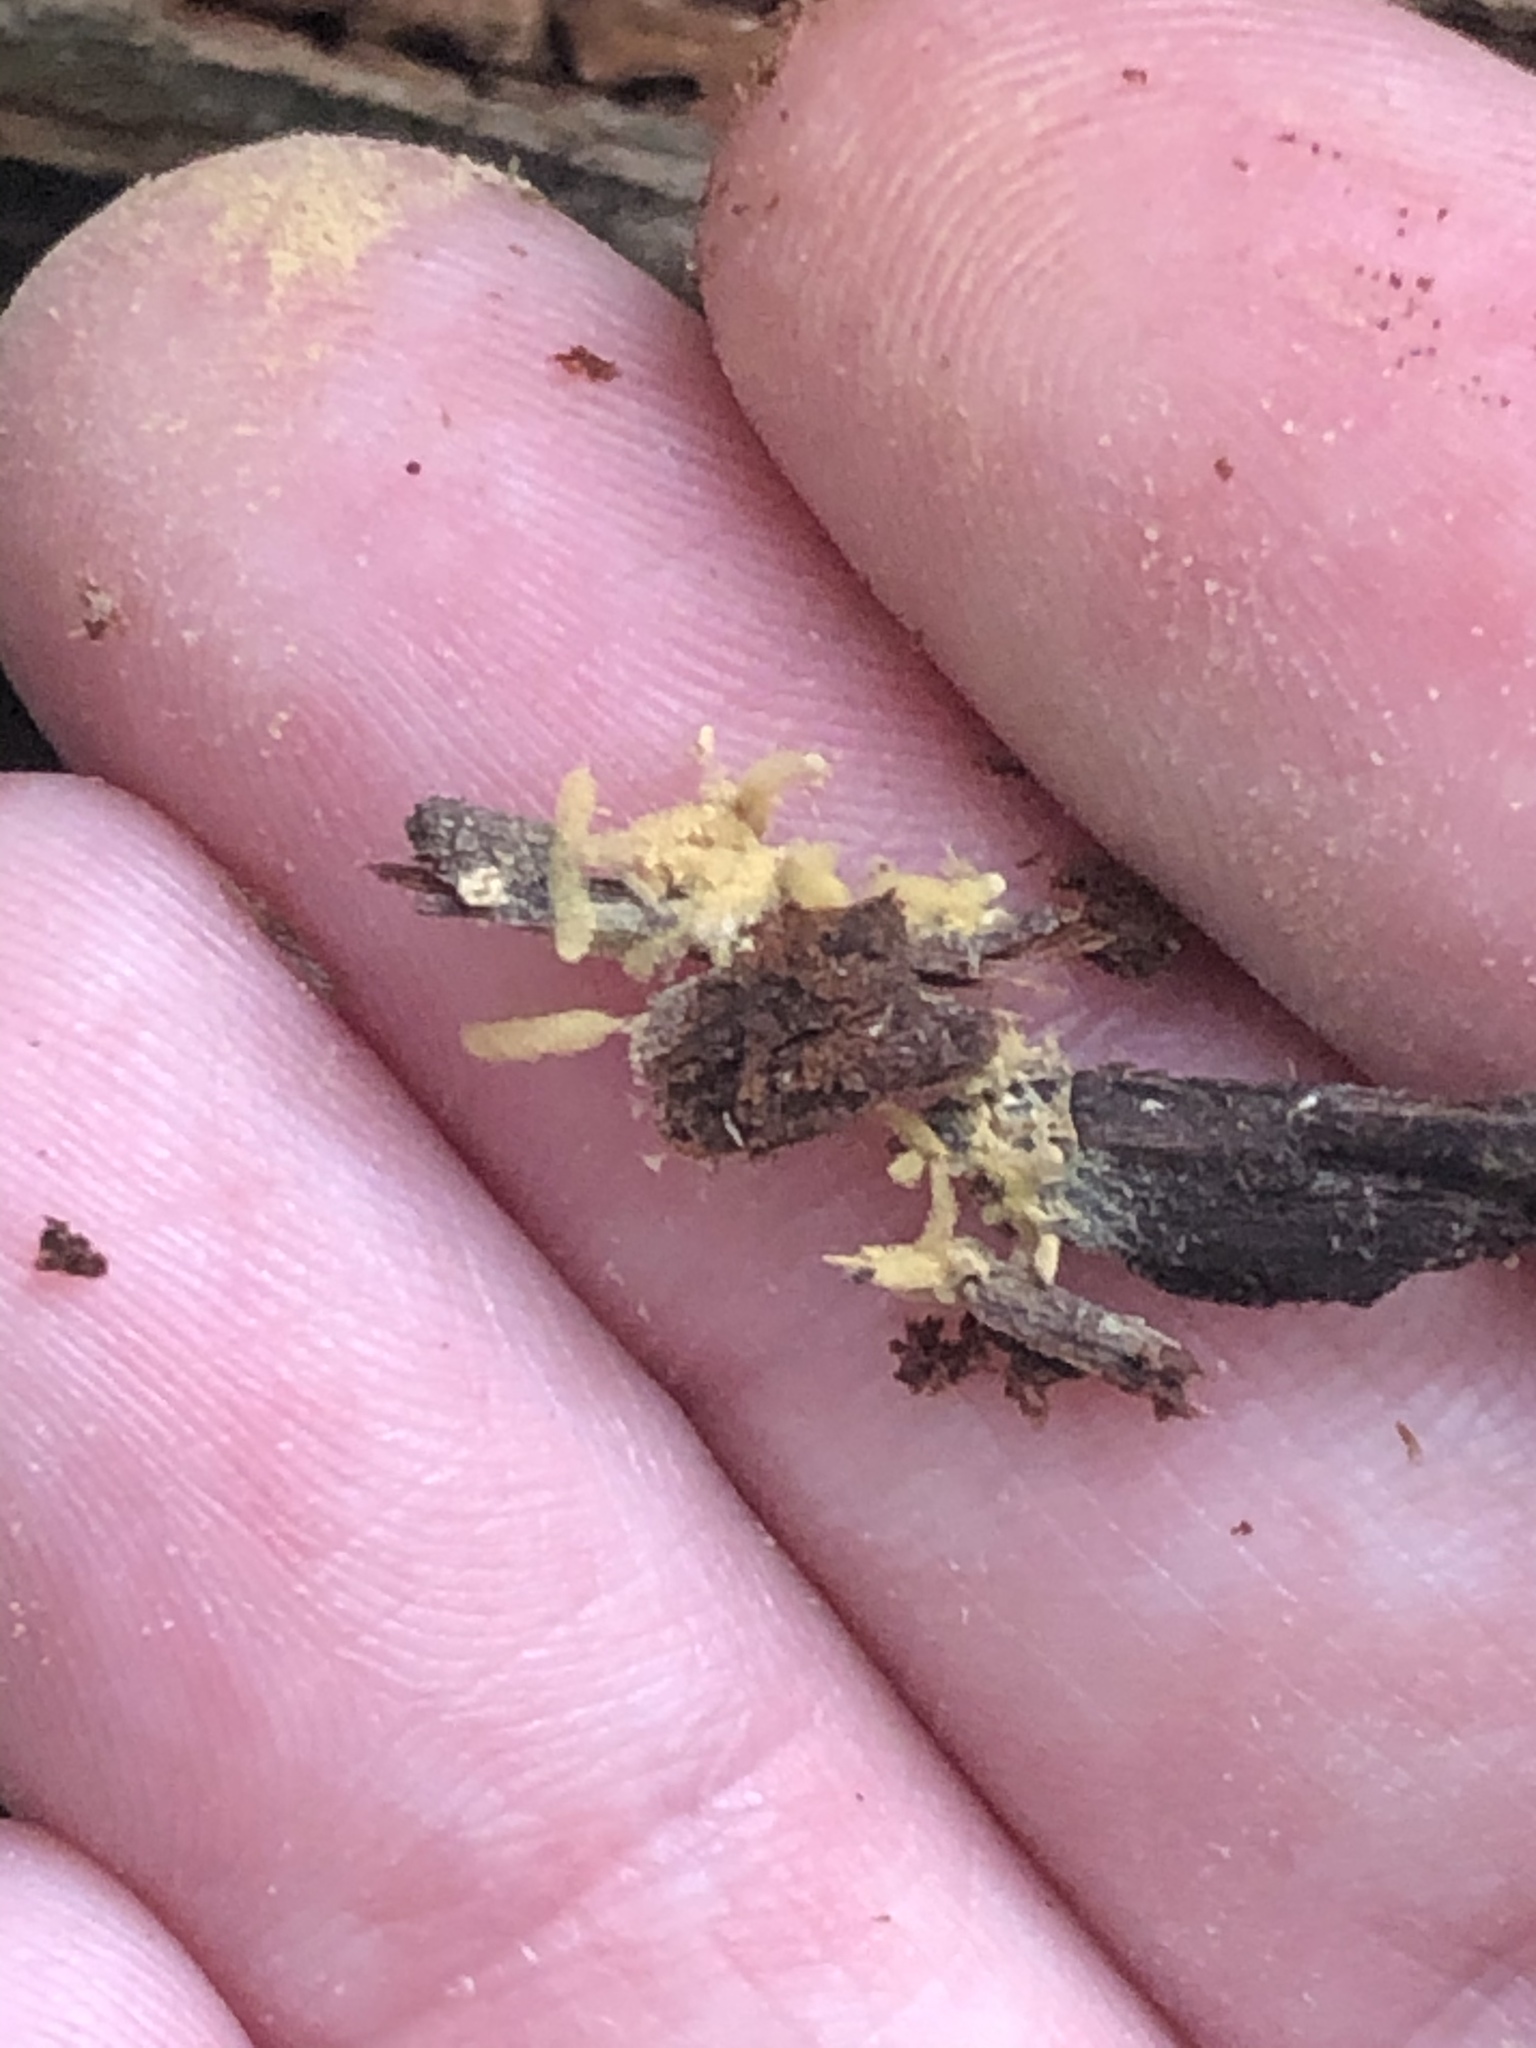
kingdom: Protozoa
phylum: Mycetozoa
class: Myxomycetes
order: Trichiales
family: Arcyriaceae
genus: Arcyria
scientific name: Arcyria obvelata
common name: Yellow carnival candy slime
